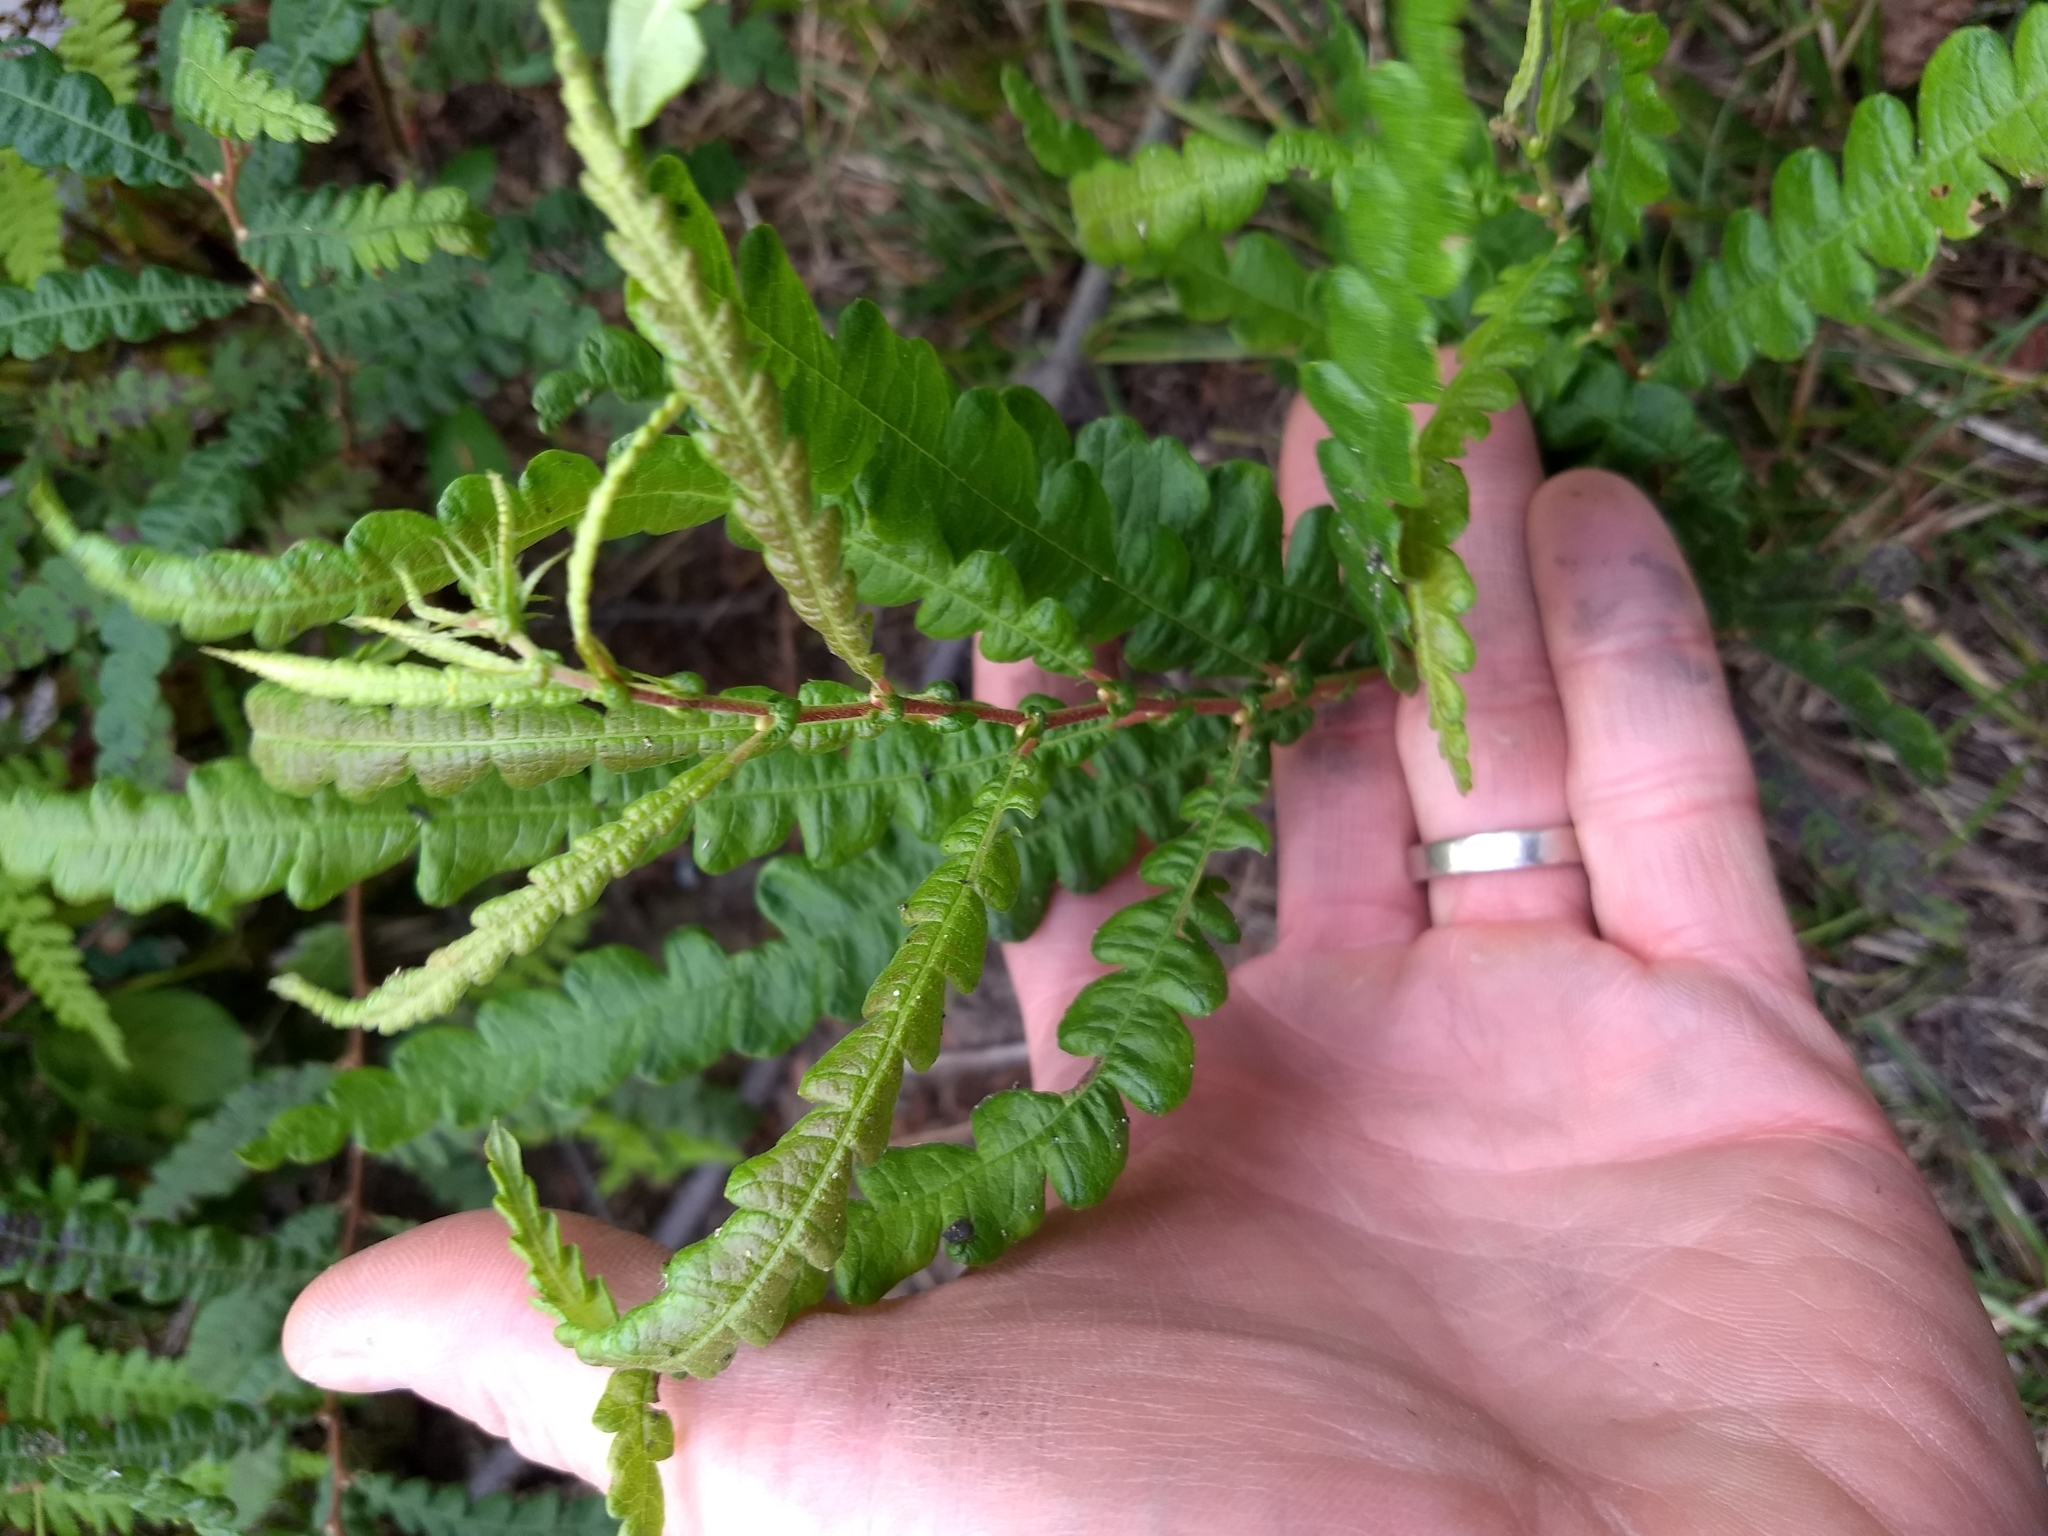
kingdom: Plantae
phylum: Tracheophyta
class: Magnoliopsida
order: Fagales
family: Myricaceae
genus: Comptonia
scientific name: Comptonia peregrina
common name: Sweet-fern
